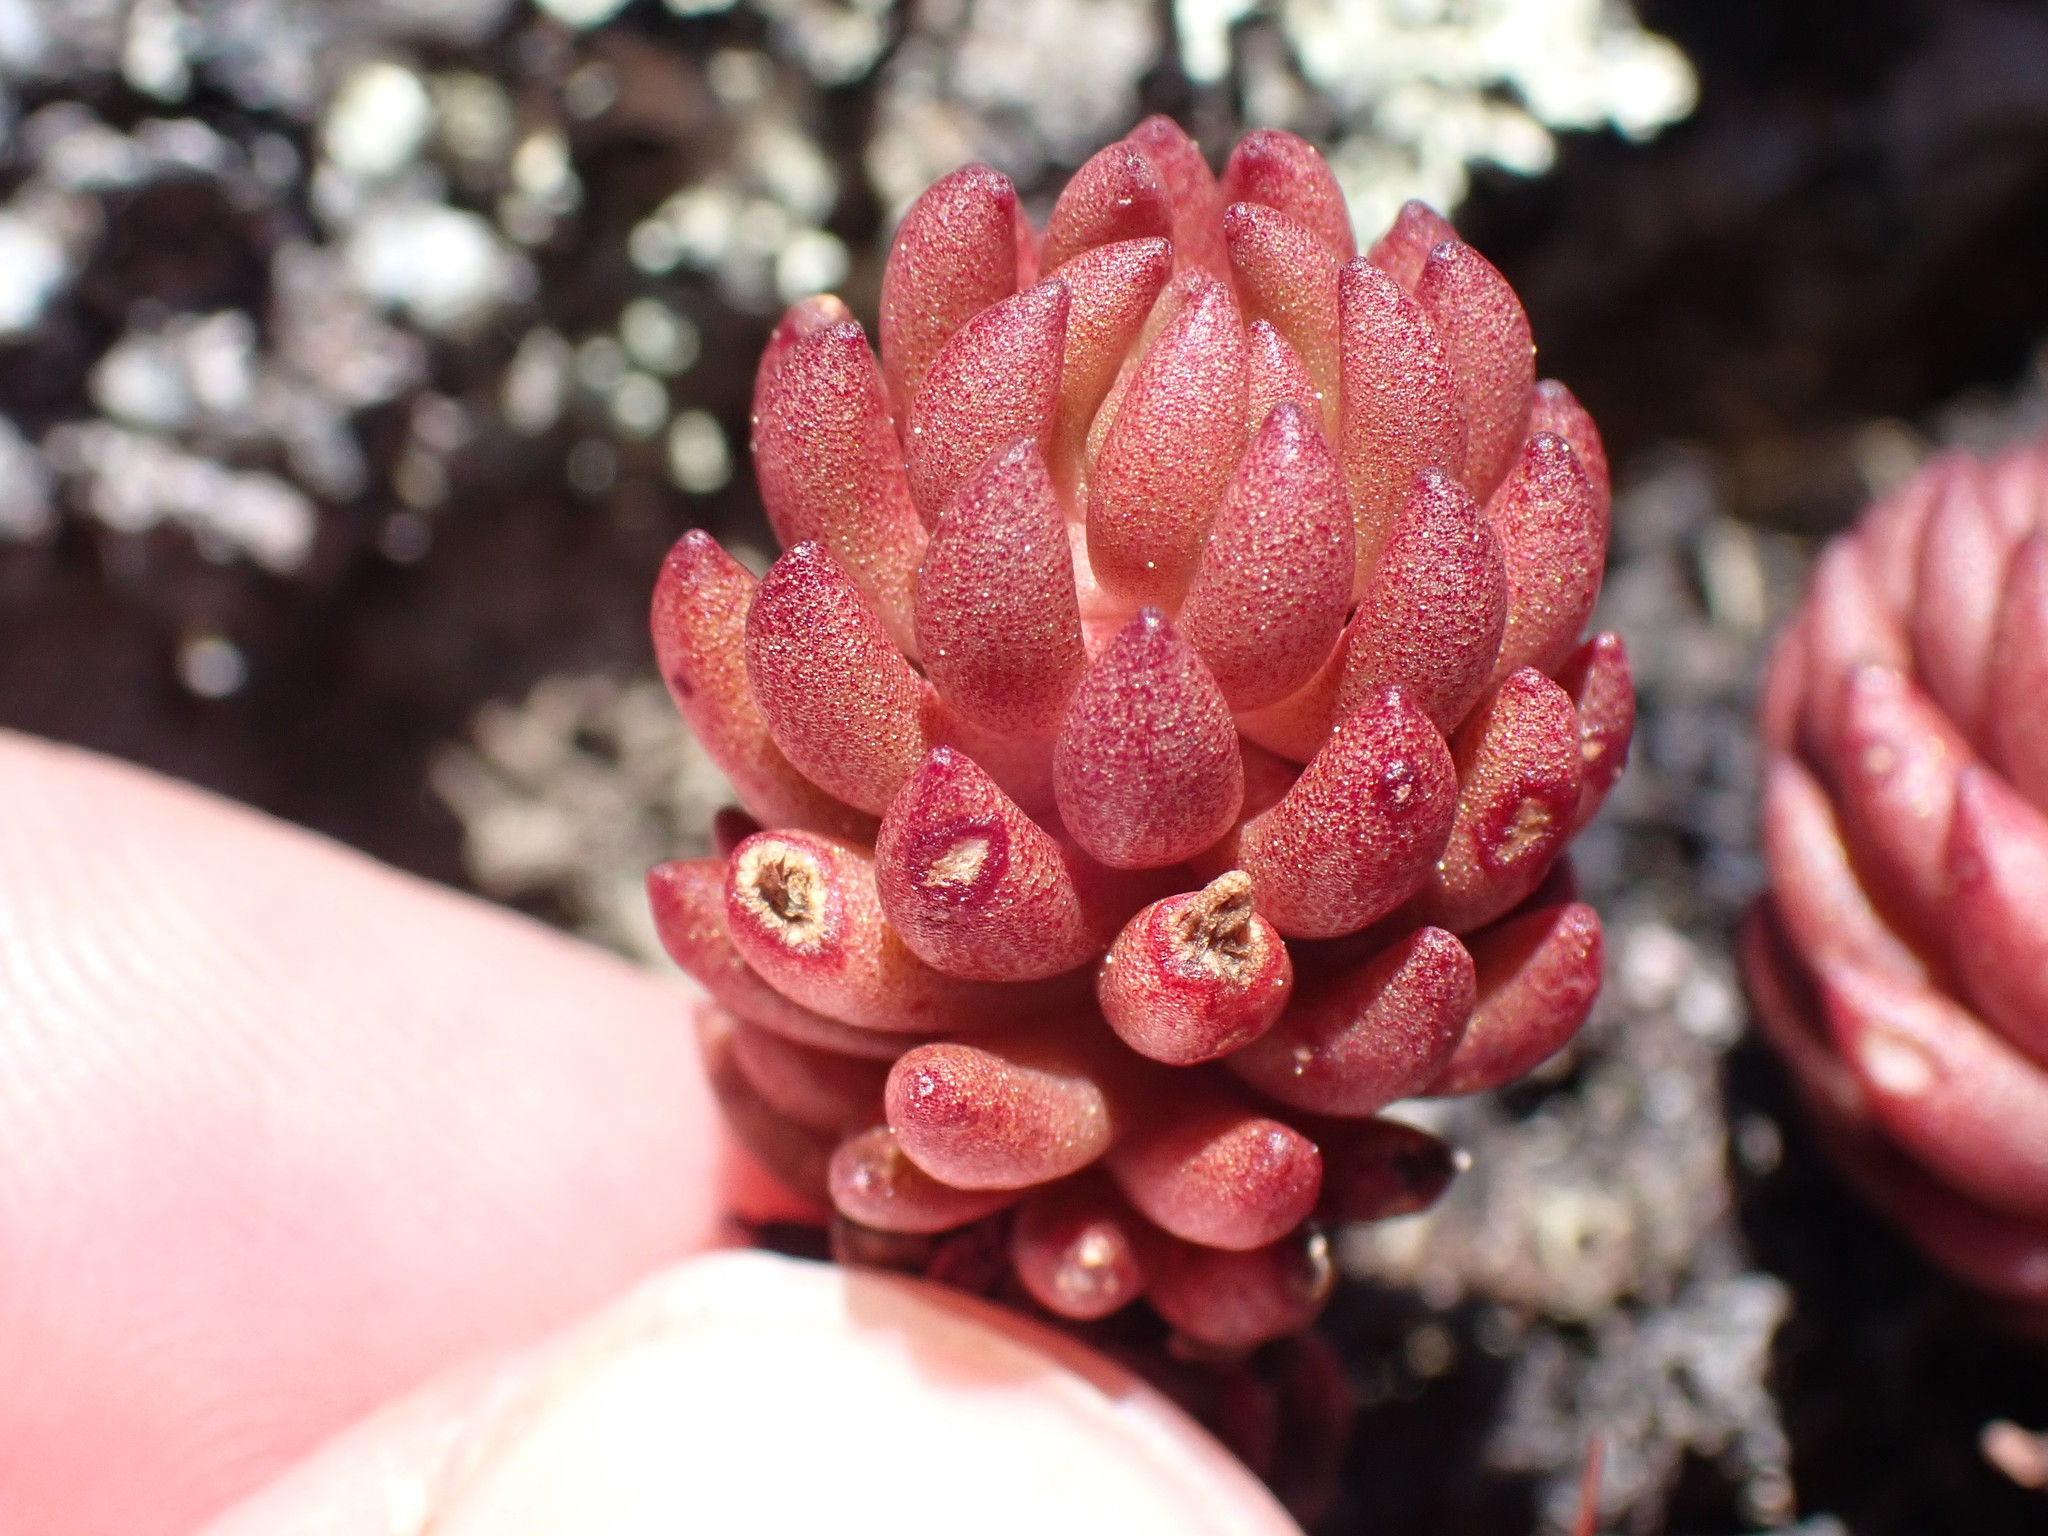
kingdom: Plantae
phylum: Tracheophyta
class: Magnoliopsida
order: Saxifragales
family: Crassulaceae
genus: Sedum
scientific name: Sedum lanceolatum
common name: Common stonecrop
